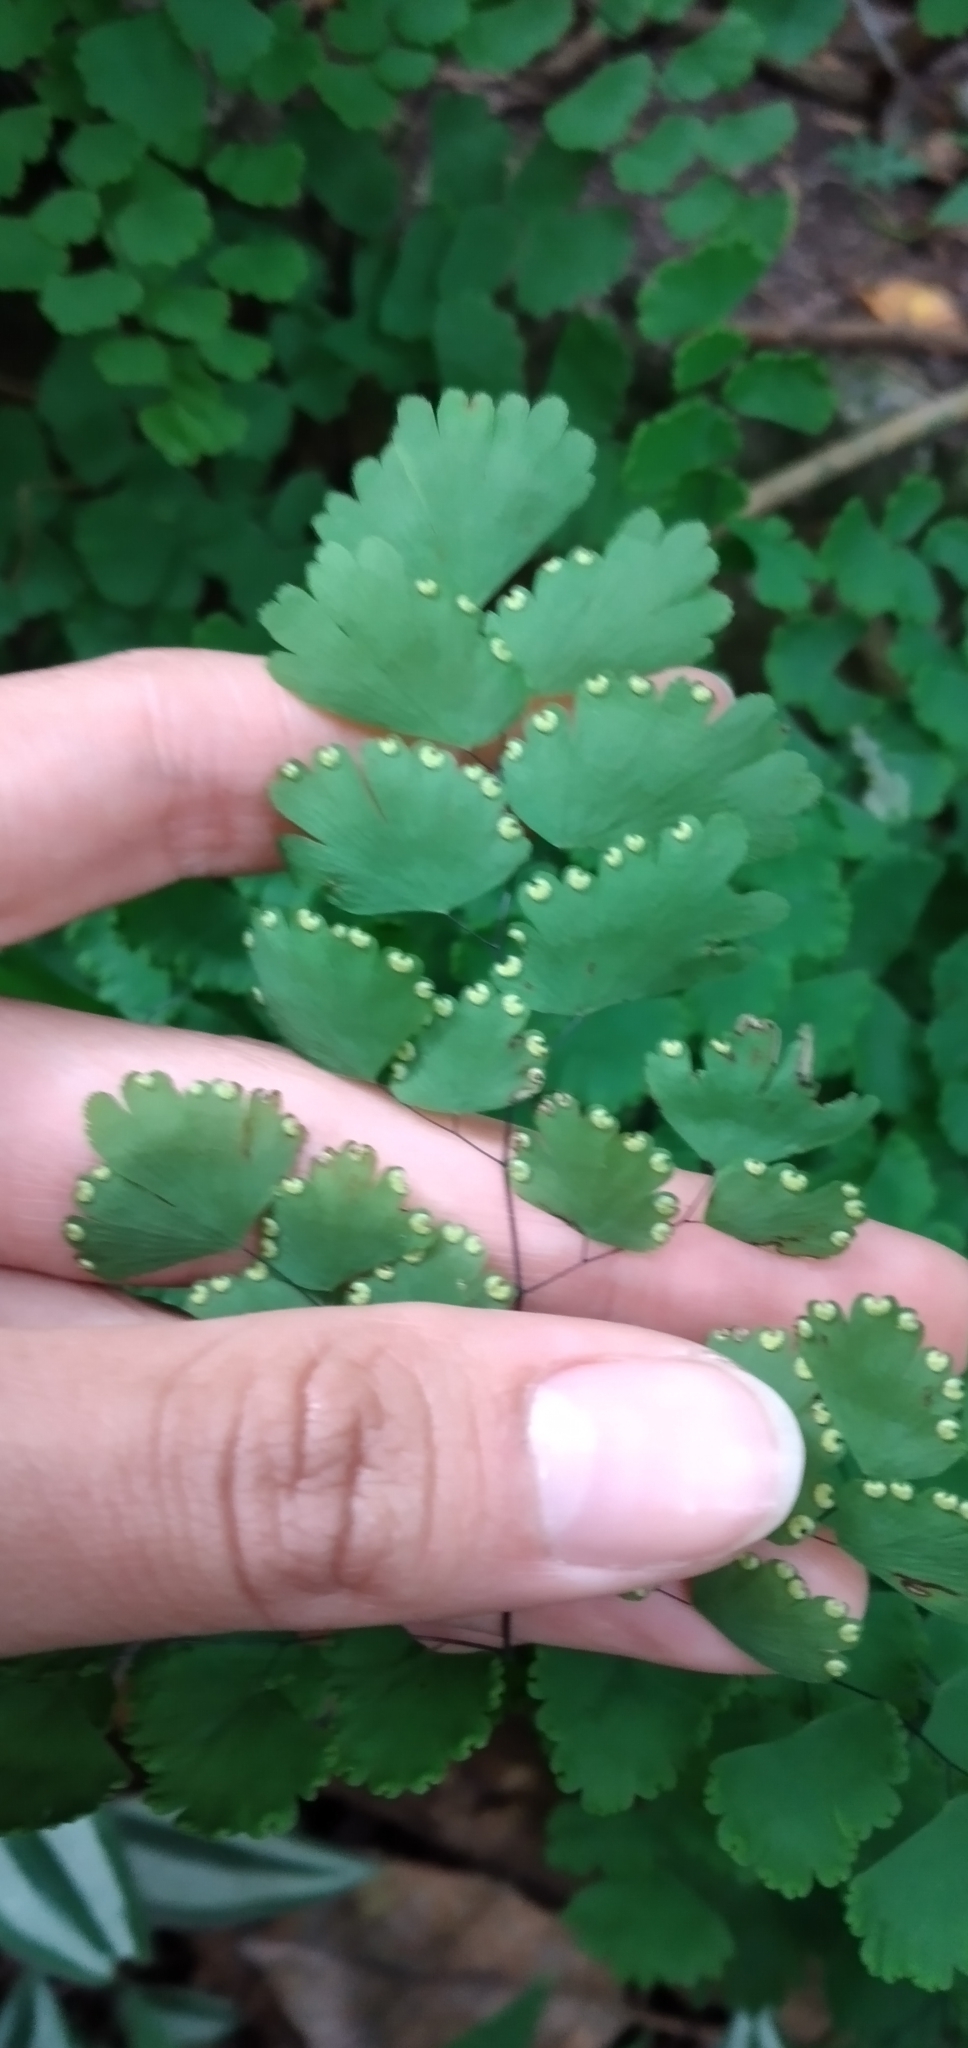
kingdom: Plantae
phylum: Tracheophyta
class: Polypodiopsida
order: Polypodiales
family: Pteridaceae
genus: Adiantum
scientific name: Adiantum lorentzii
